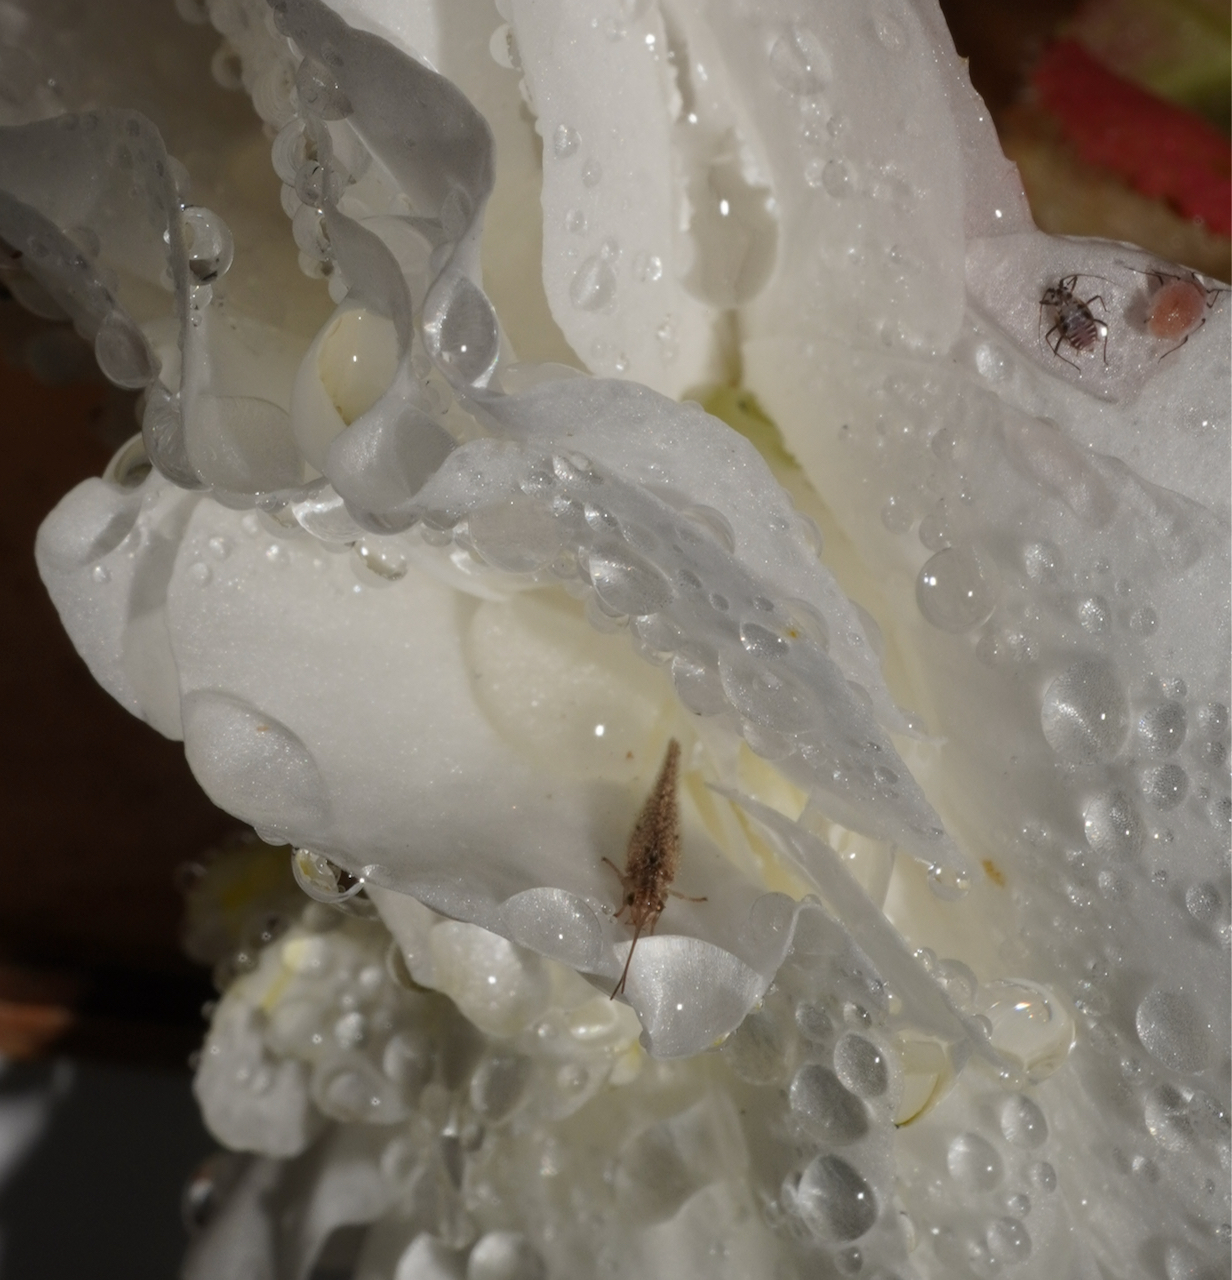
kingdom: Animalia
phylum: Arthropoda
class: Insecta
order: Neuroptera
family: Hemerobiidae
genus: Micromus
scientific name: Micromus tasmaniae
